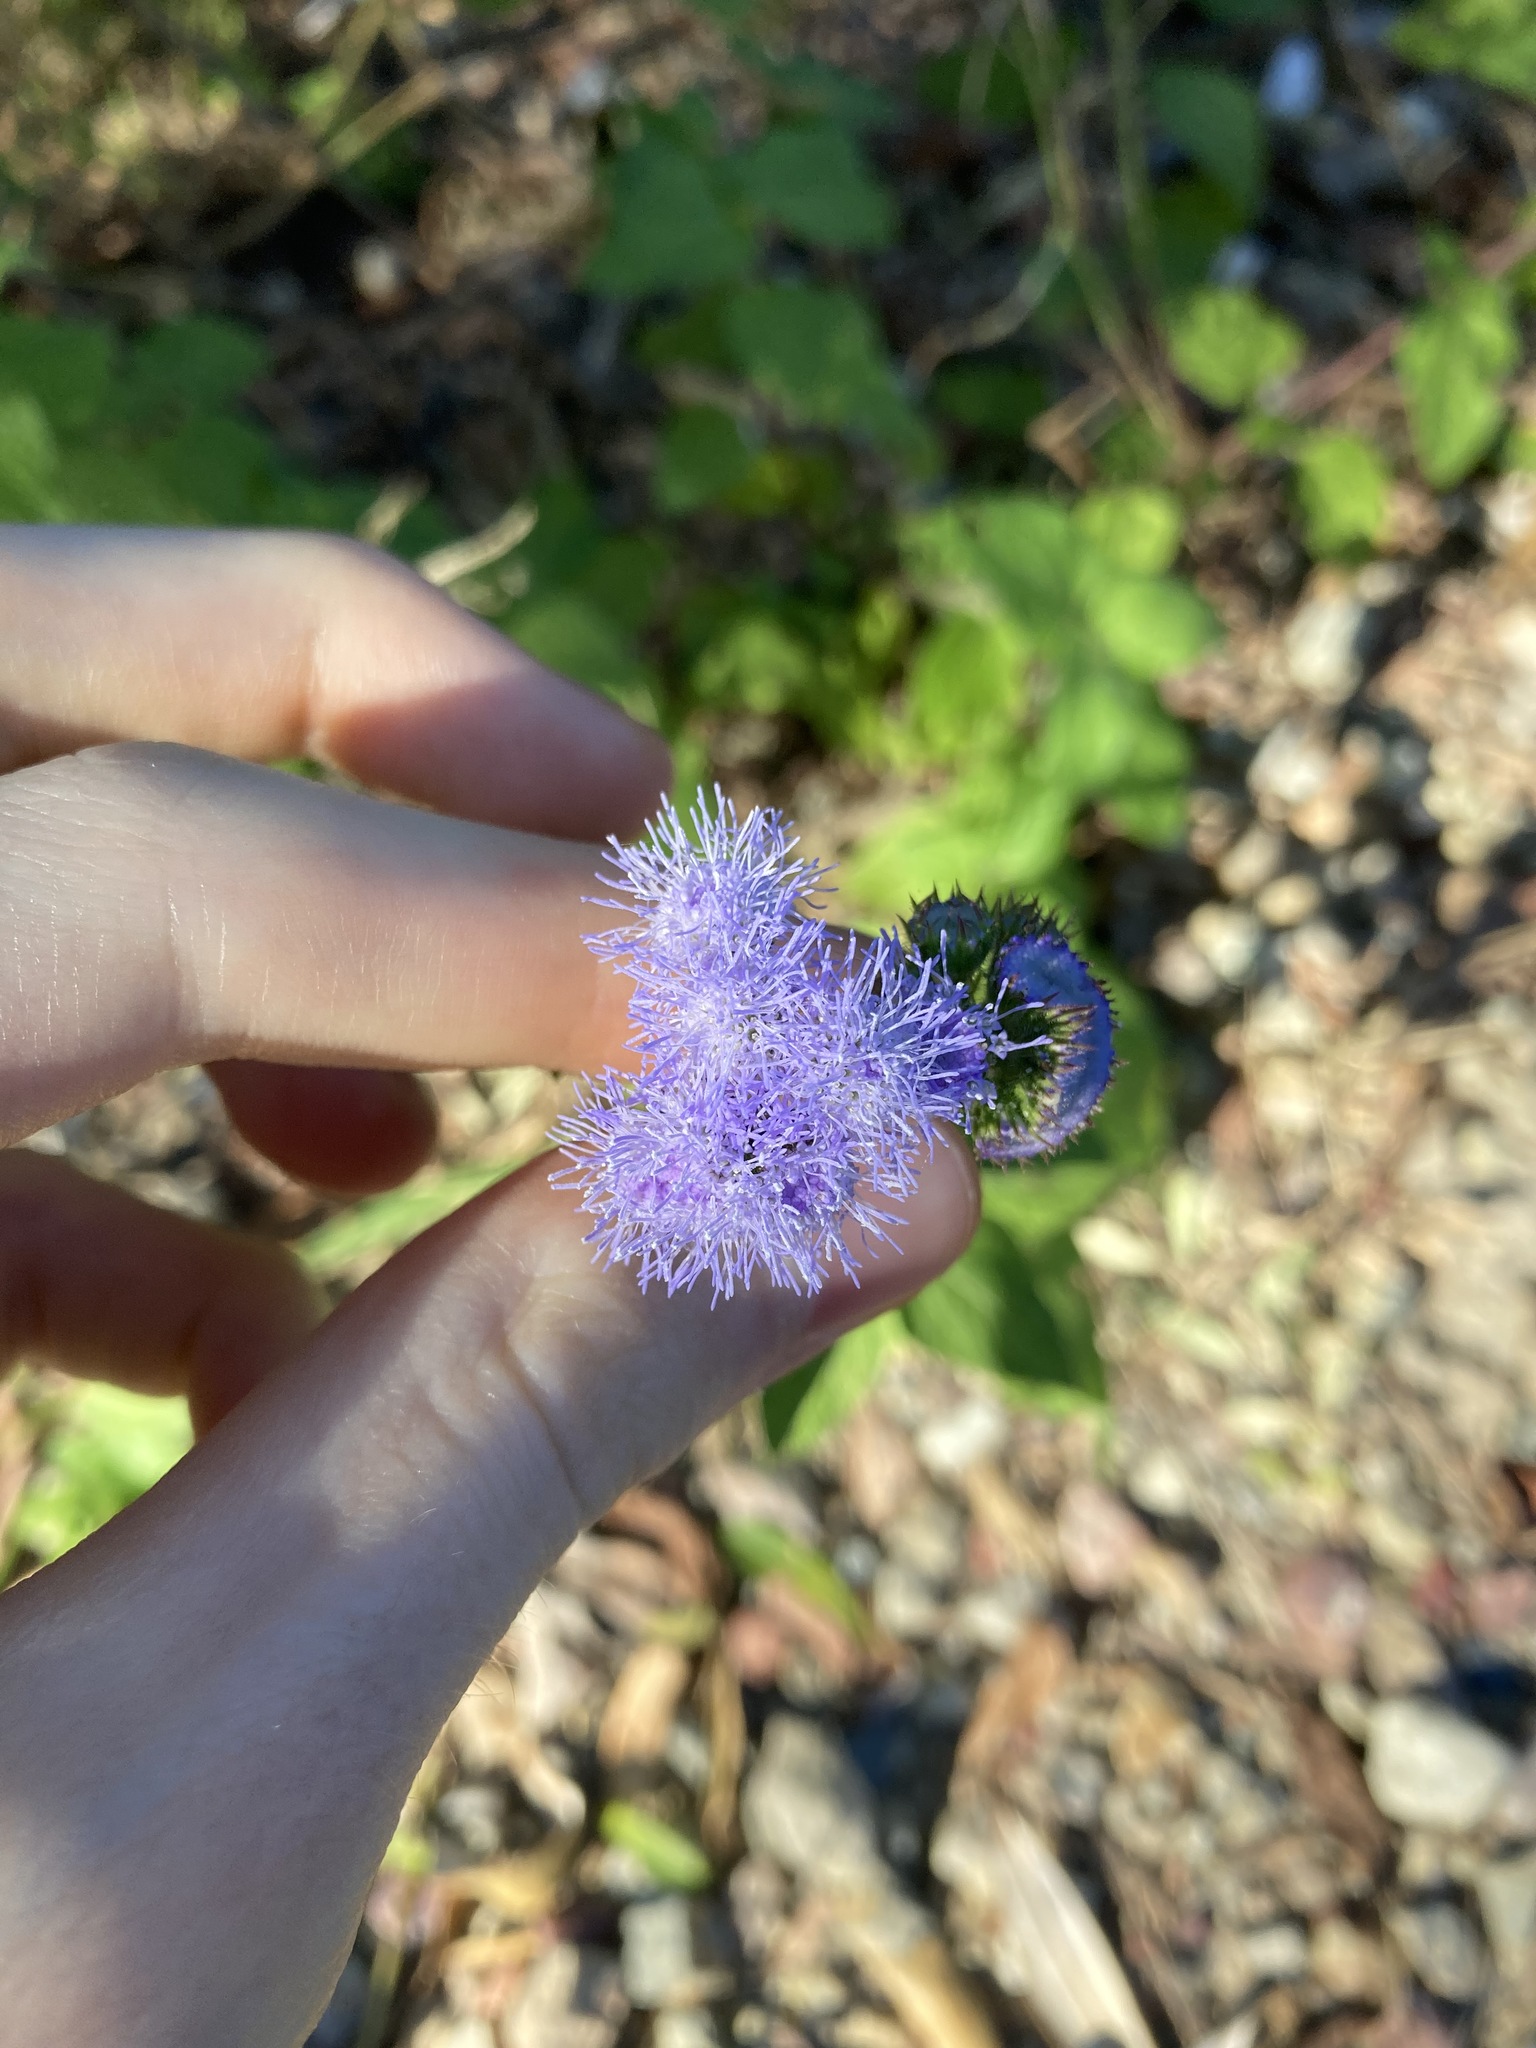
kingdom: Plantae
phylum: Tracheophyta
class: Magnoliopsida
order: Asterales
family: Asteraceae
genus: Ageratum
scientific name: Ageratum houstonianum
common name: Bluemink
